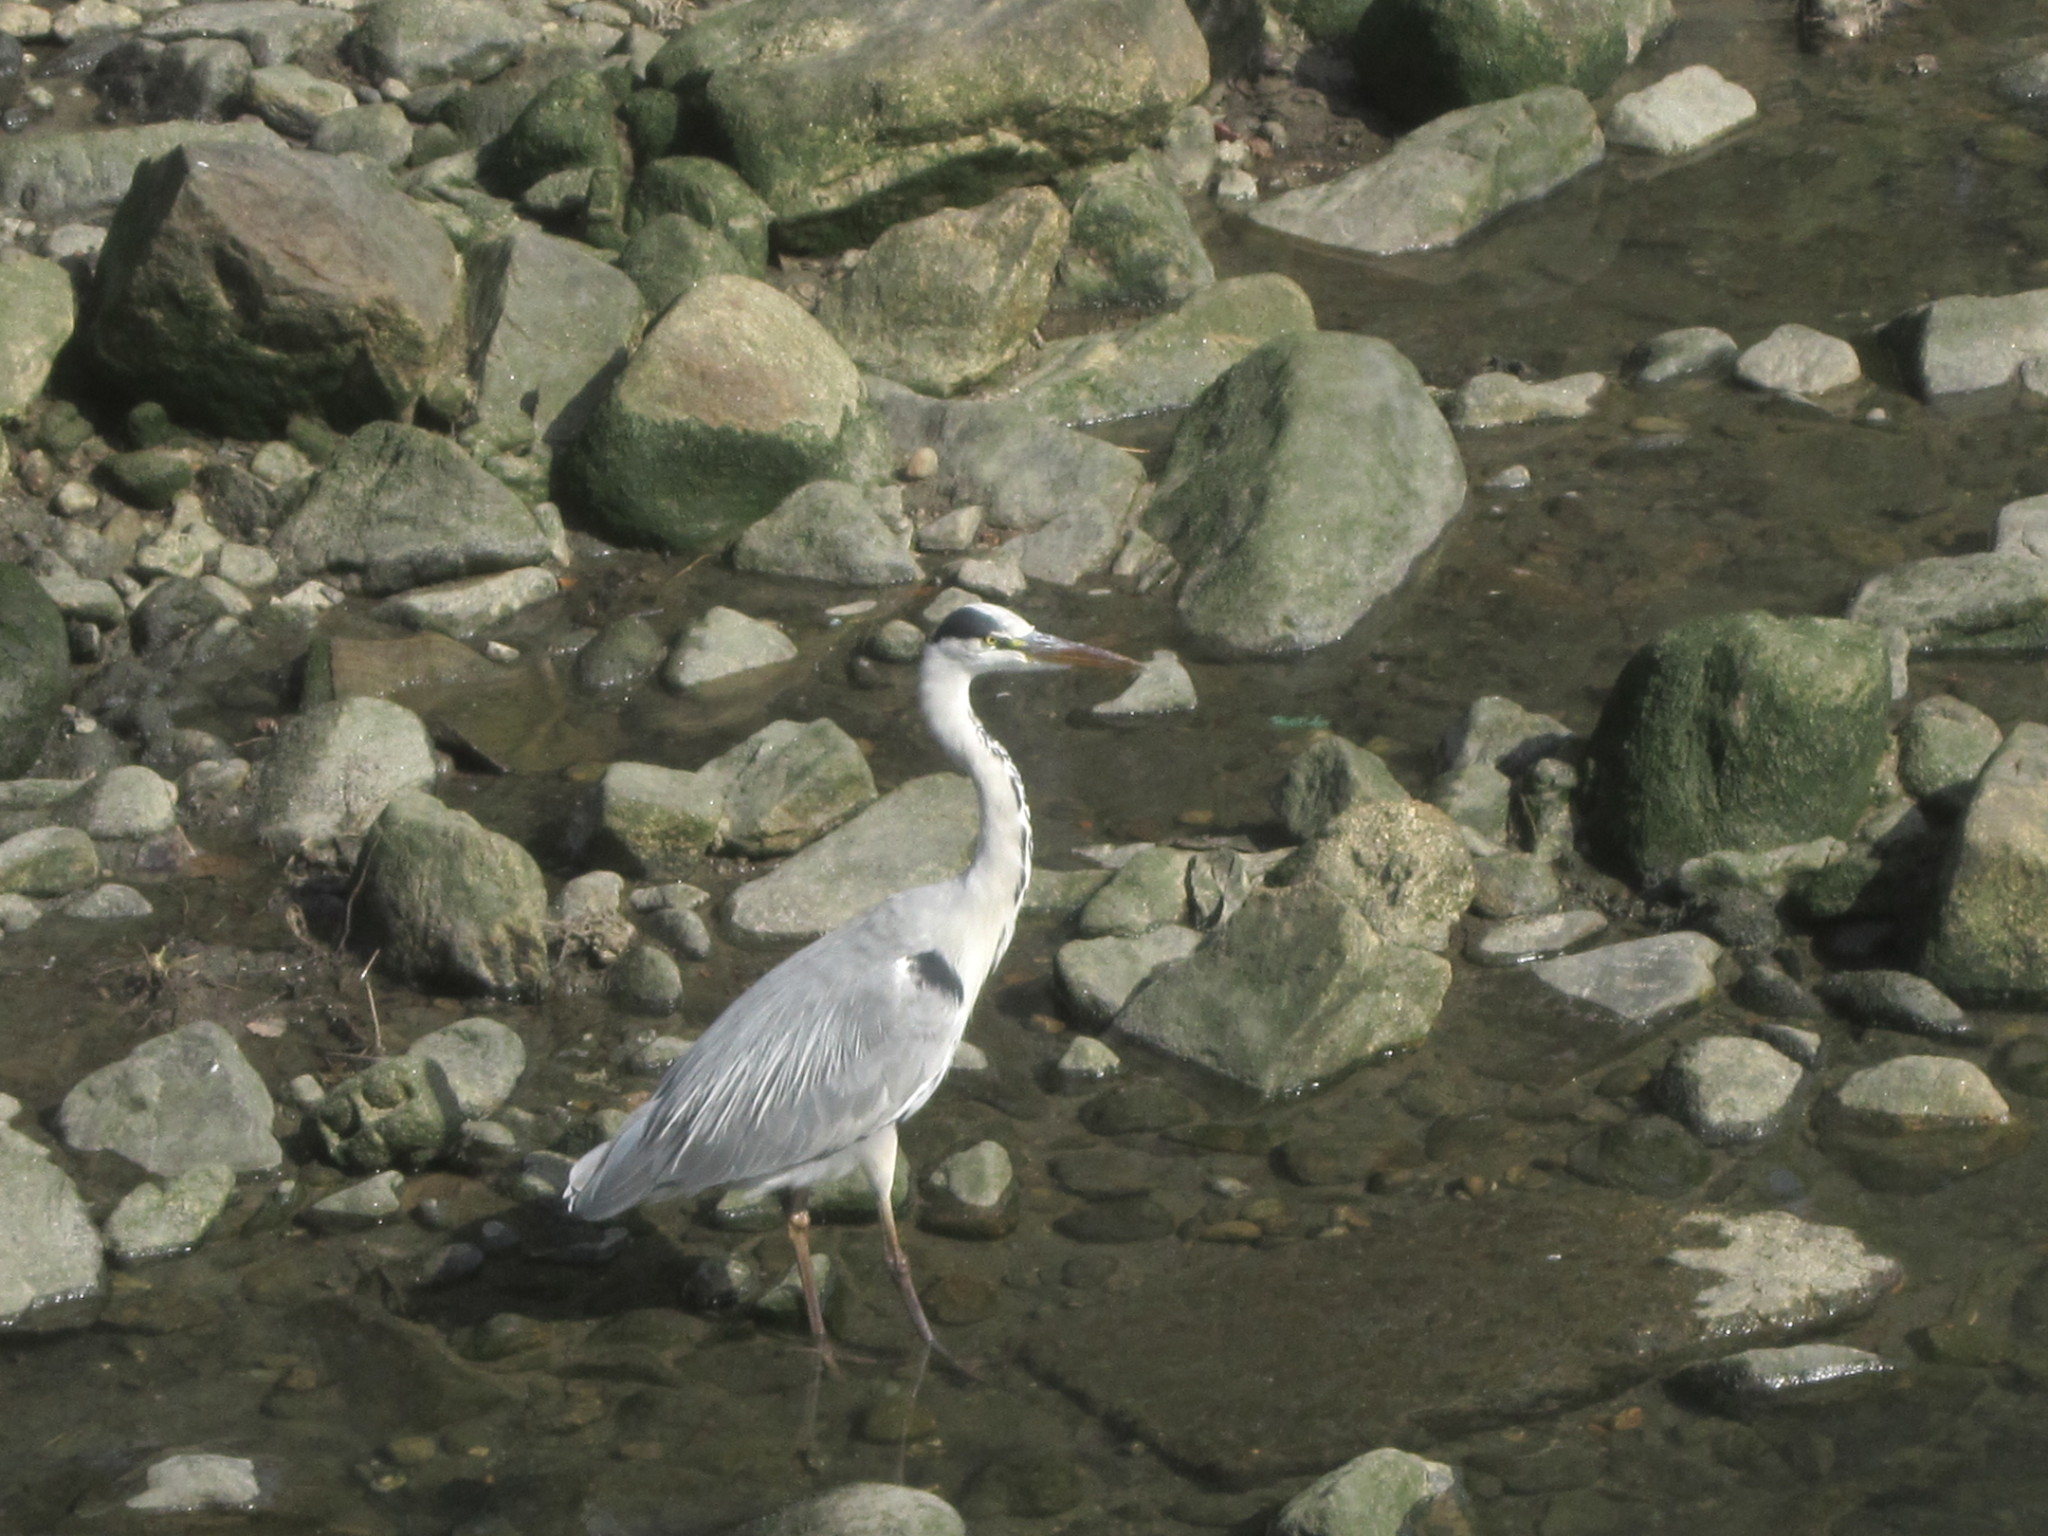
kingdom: Animalia
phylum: Chordata
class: Aves
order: Pelecaniformes
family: Ardeidae
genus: Ardea
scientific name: Ardea cinerea
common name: Grey heron
